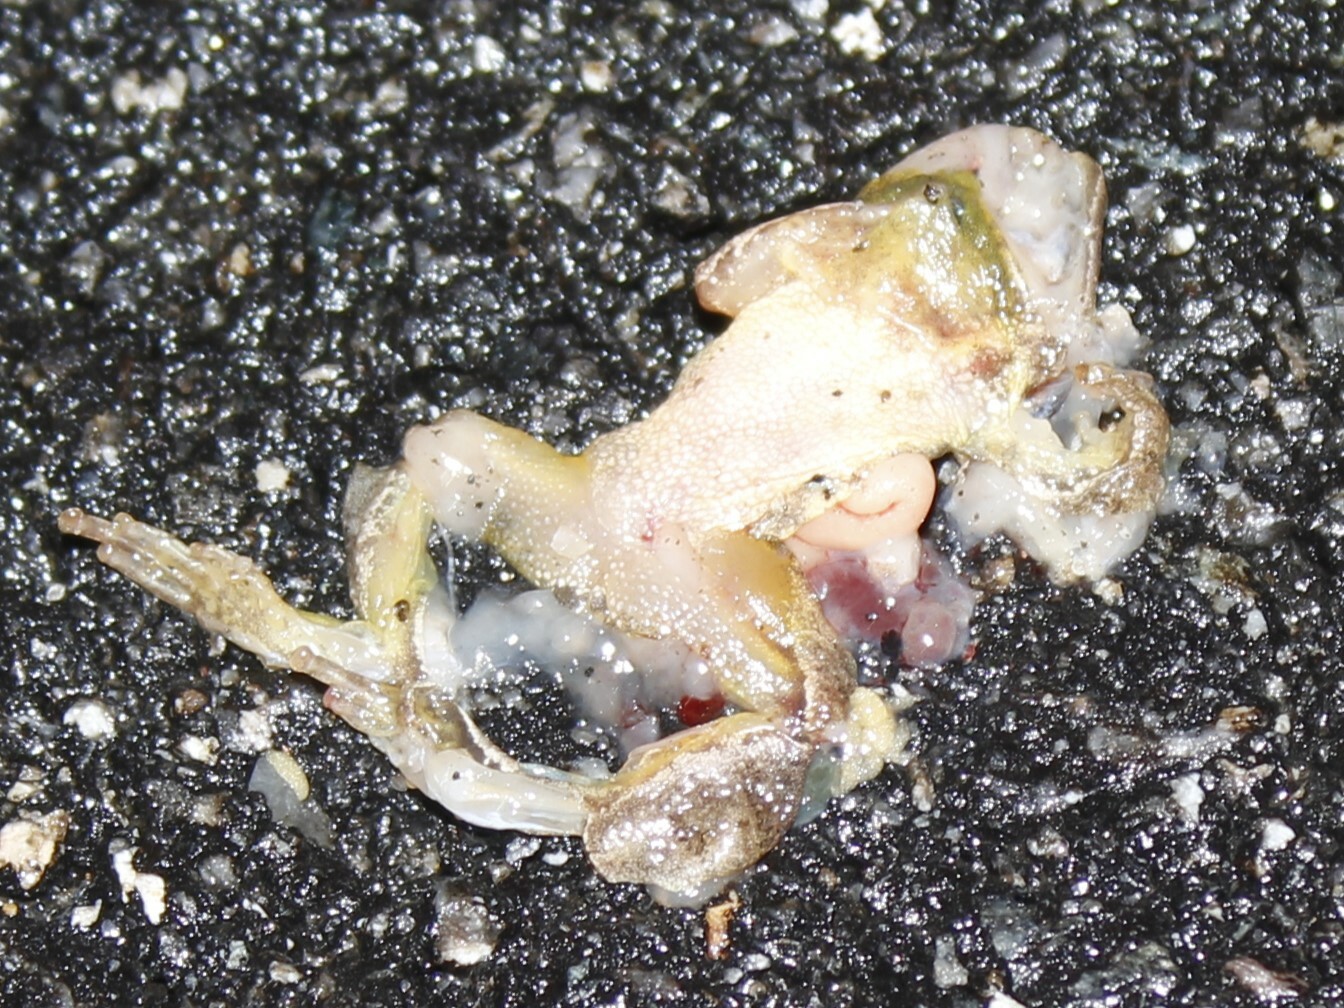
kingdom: Animalia
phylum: Chordata
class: Amphibia
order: Anura
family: Hylidae
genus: Pseudacris
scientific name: Pseudacris crucifer
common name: Spring peeper
